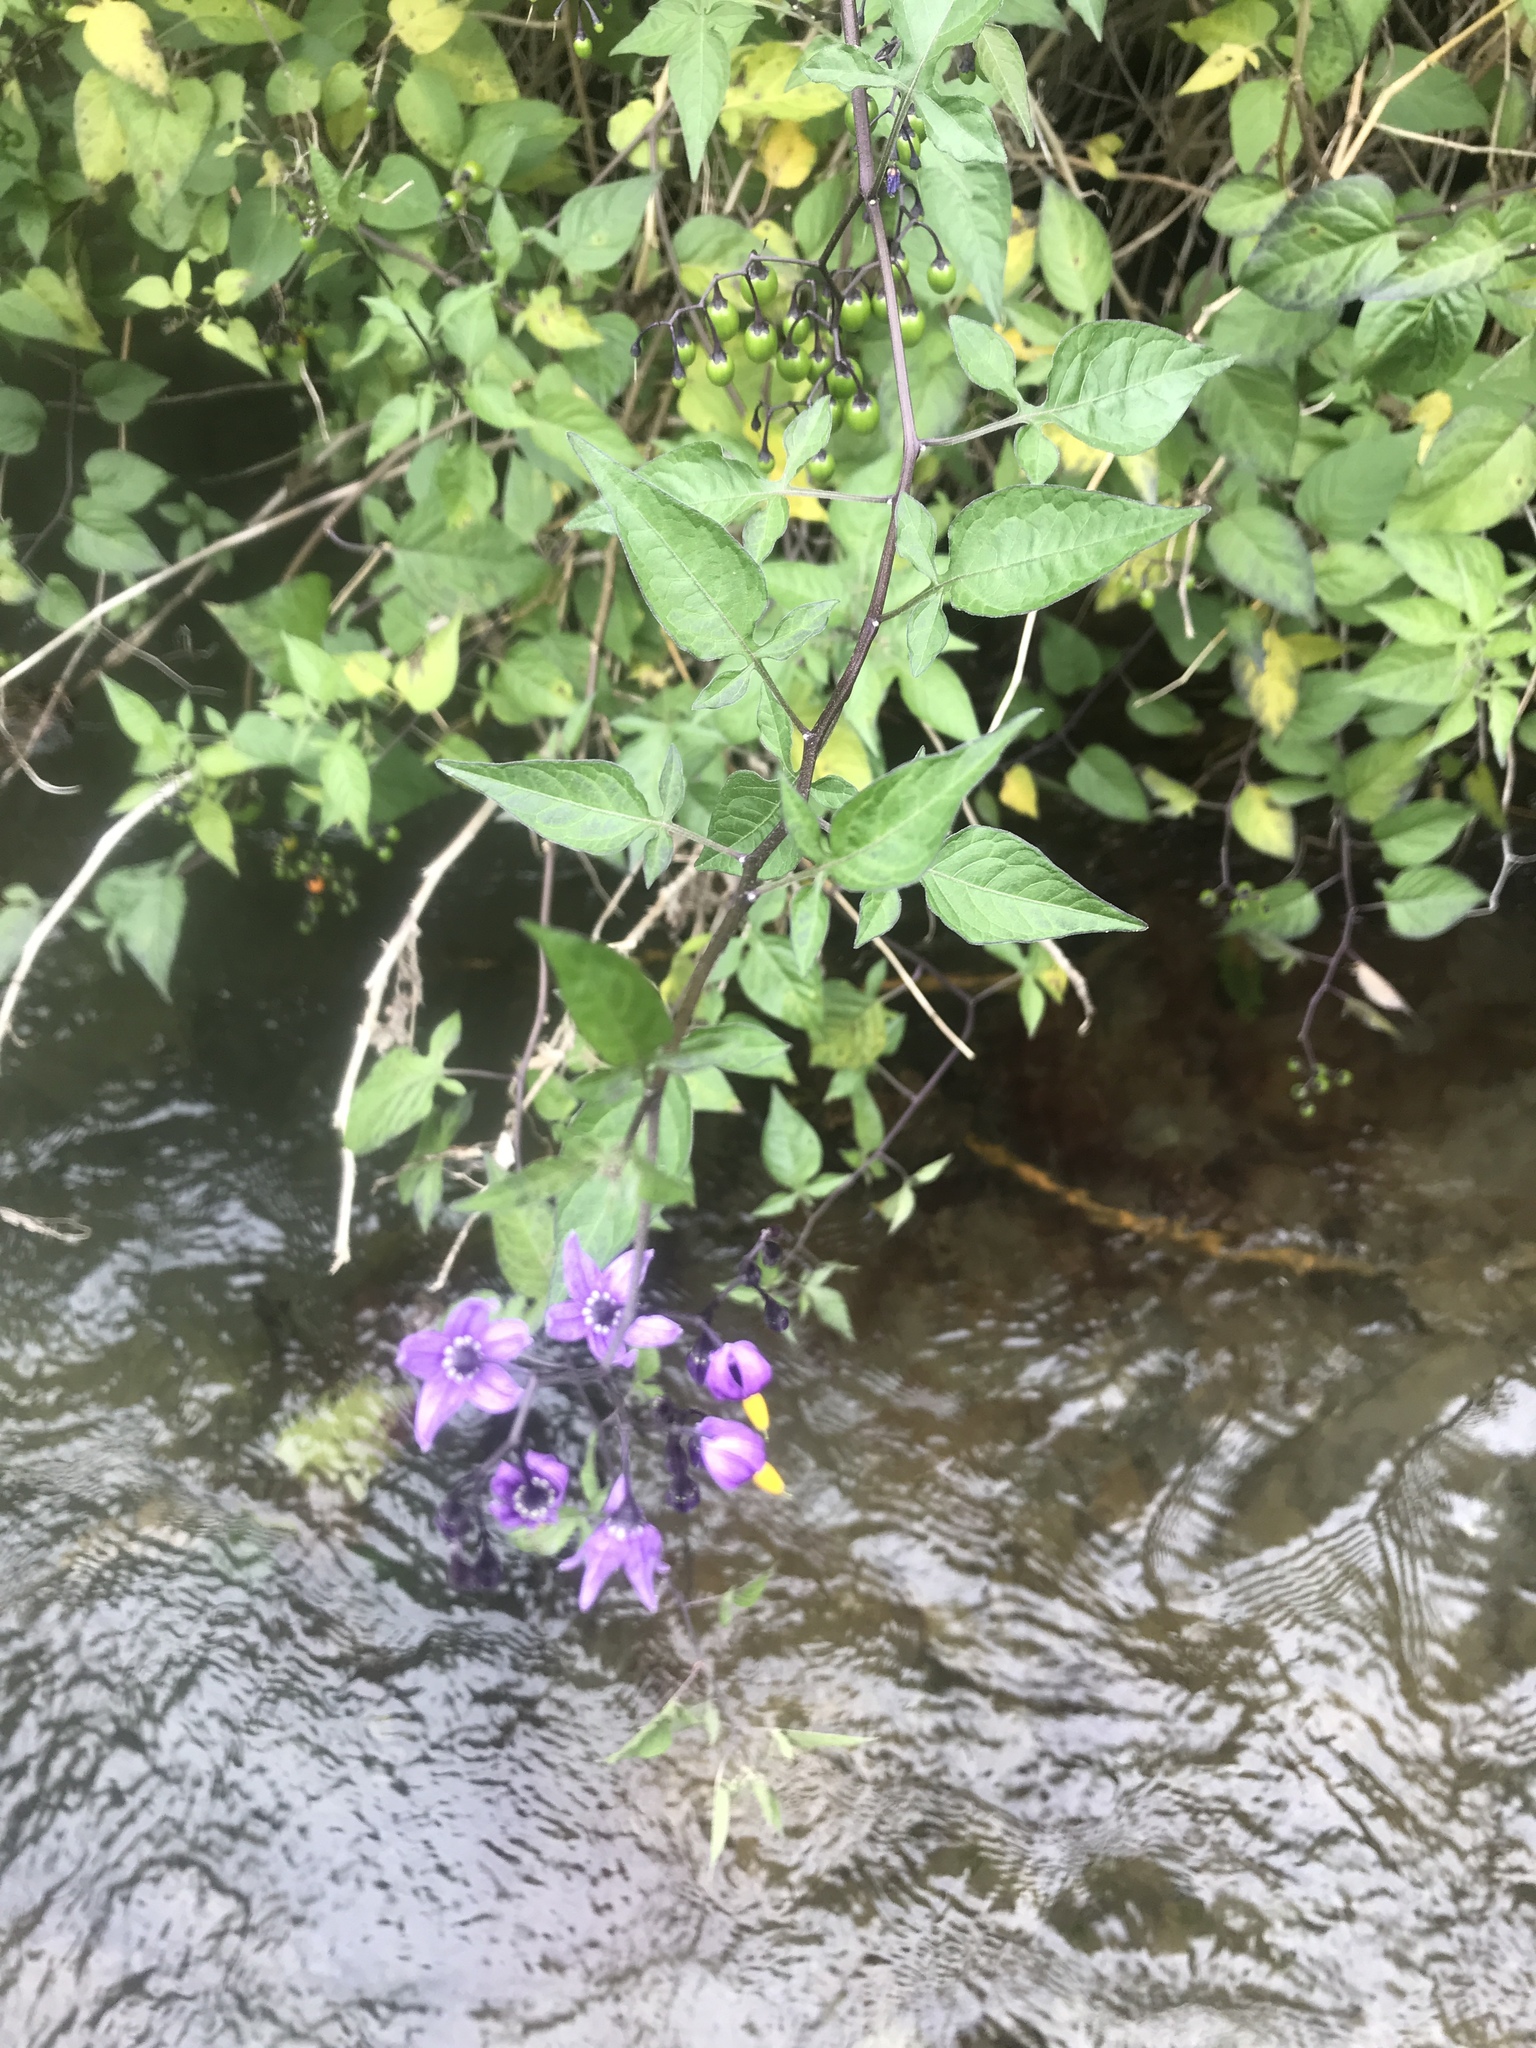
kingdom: Plantae
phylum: Tracheophyta
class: Magnoliopsida
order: Solanales
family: Solanaceae
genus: Solanum
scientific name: Solanum dulcamara
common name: Climbing nightshade
